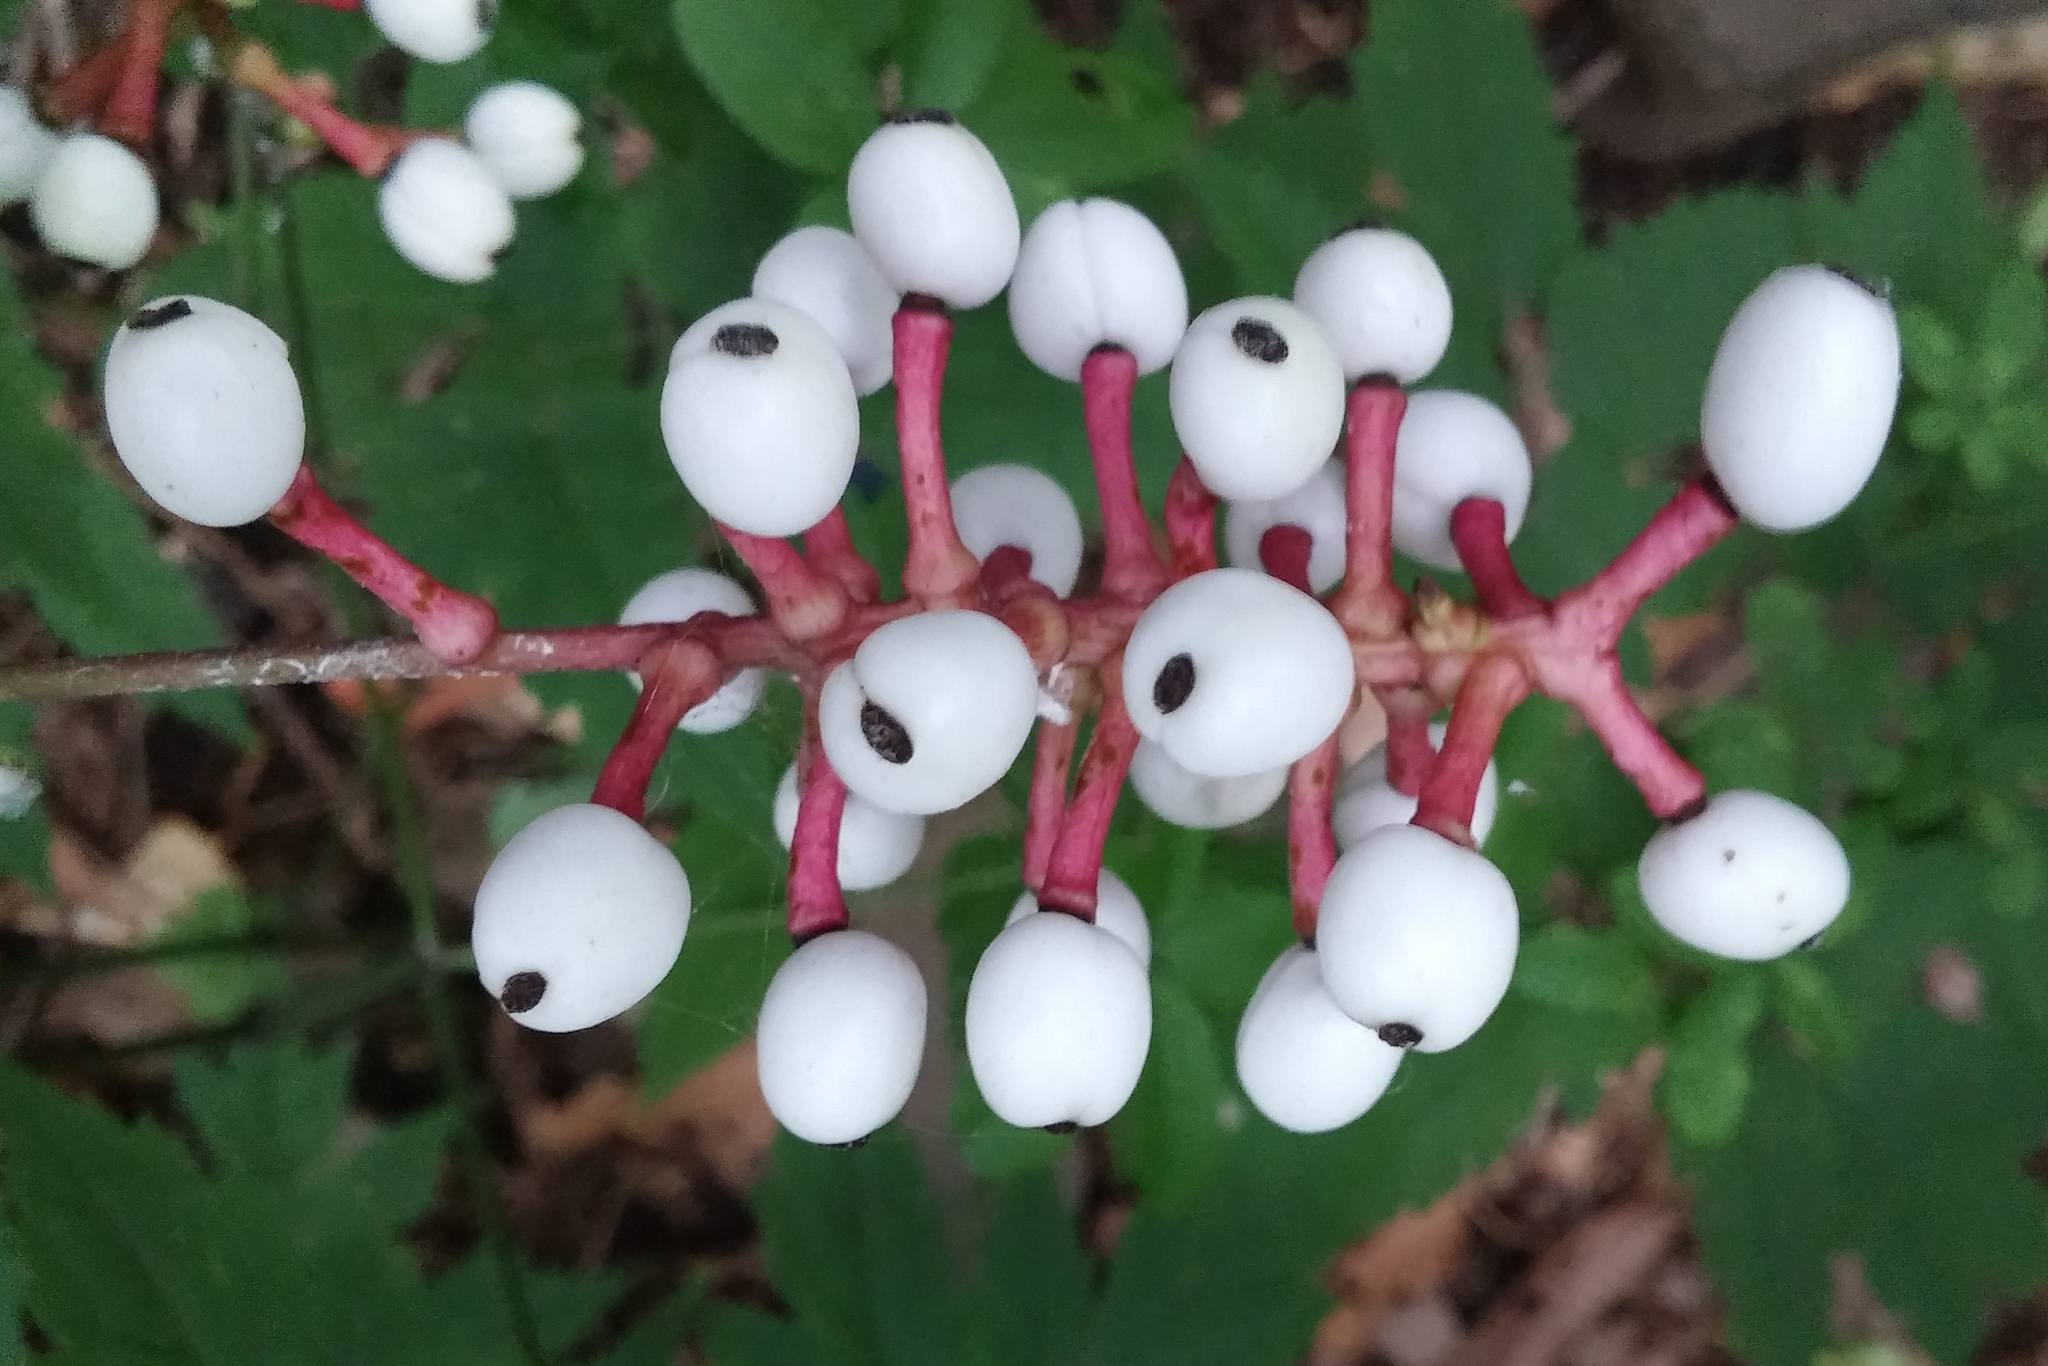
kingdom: Plantae
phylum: Tracheophyta
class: Magnoliopsida
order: Ranunculales
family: Ranunculaceae
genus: Actaea
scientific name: Actaea pachypoda
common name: Doll's-eyes
